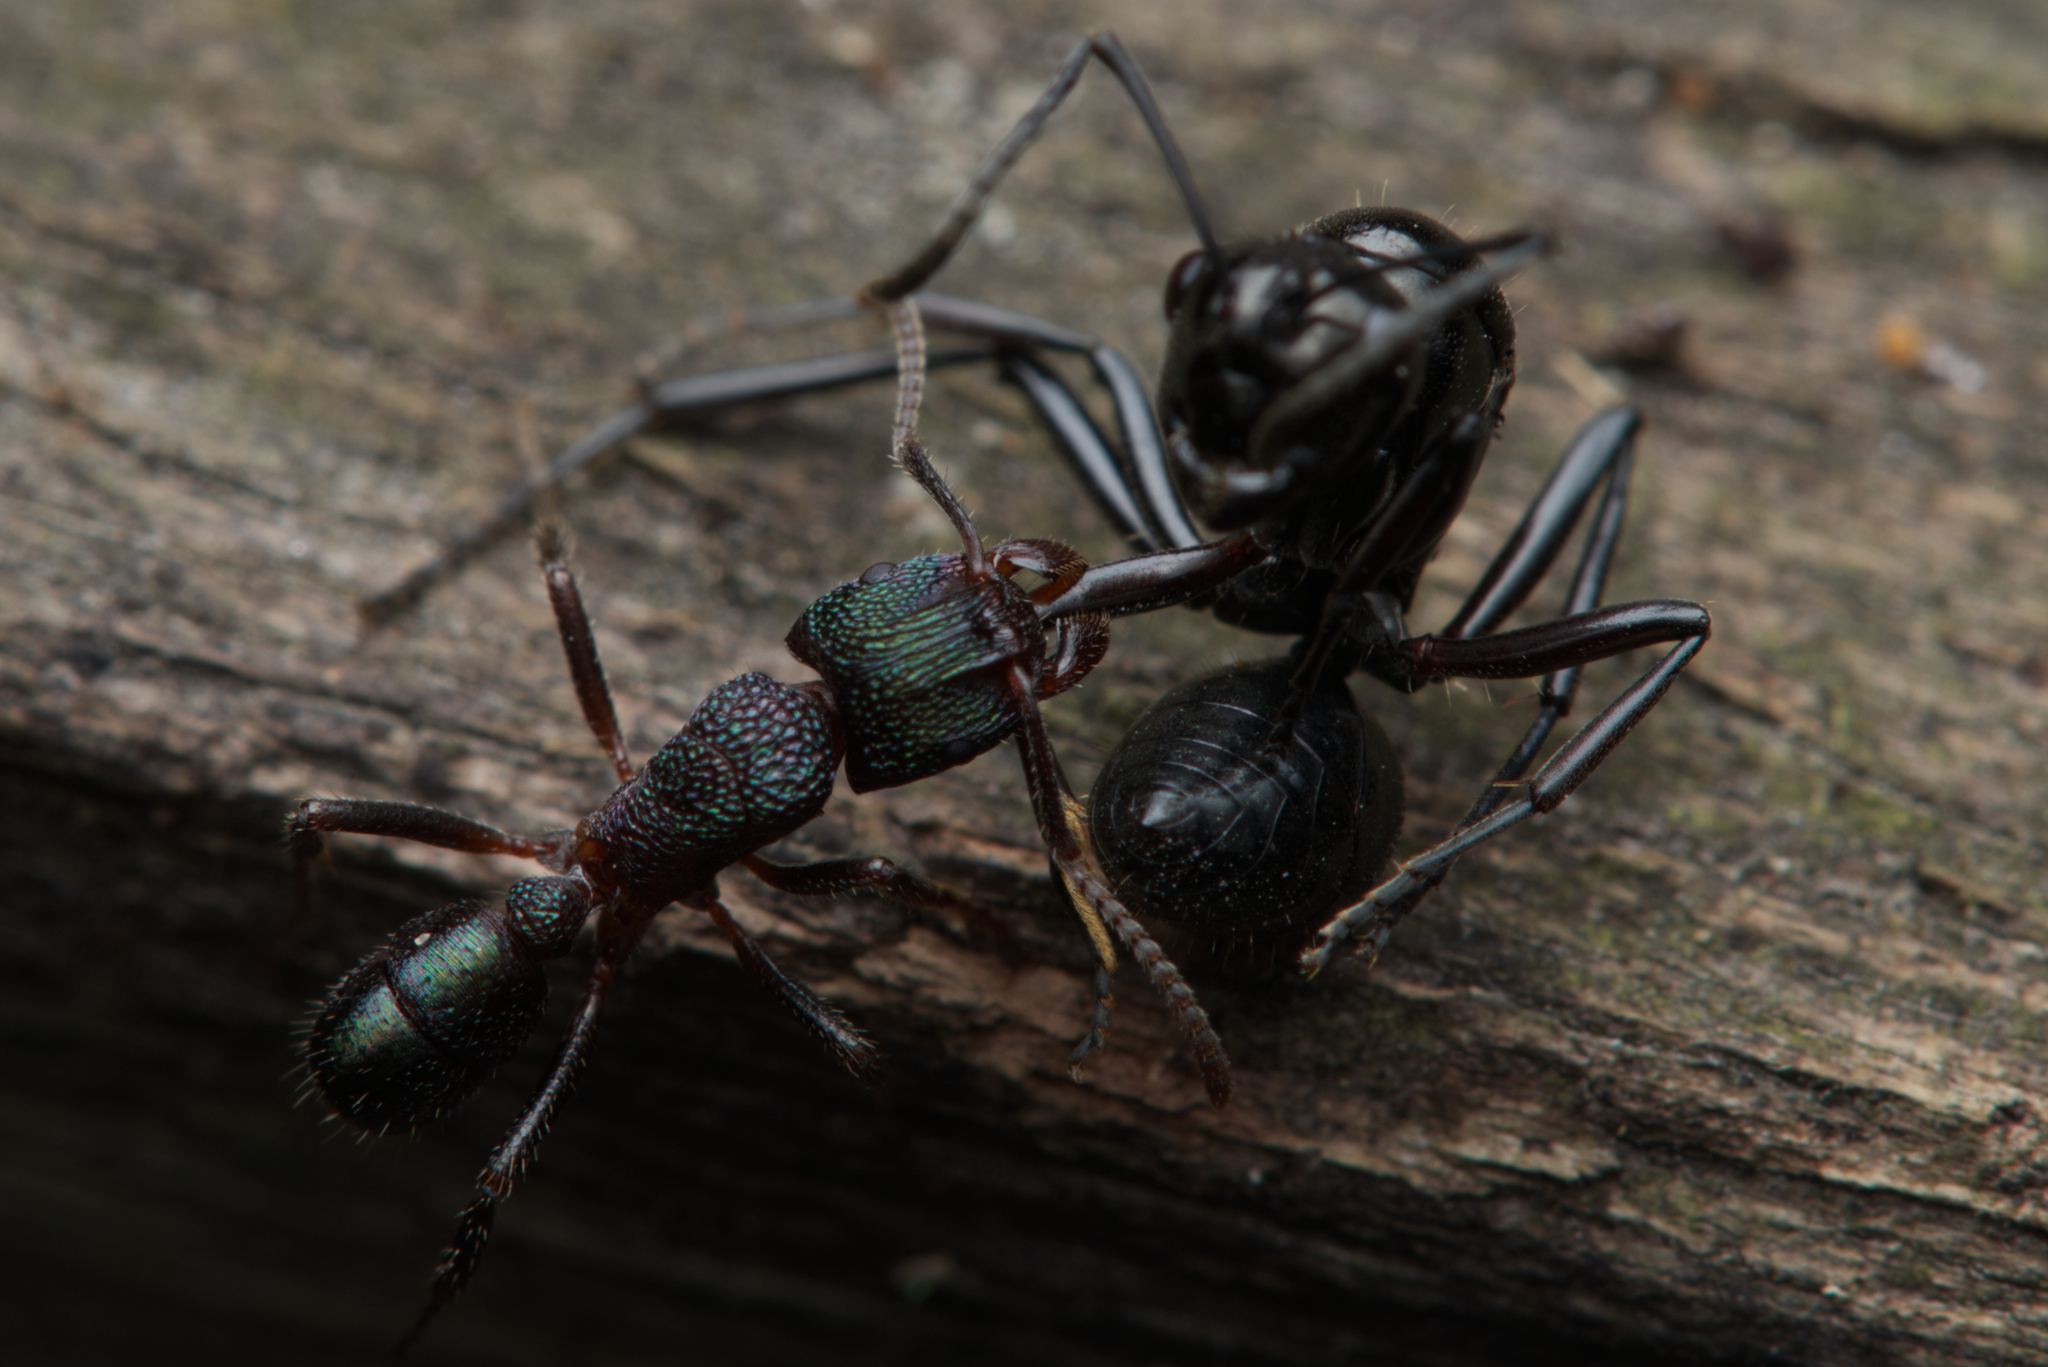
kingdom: Animalia
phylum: Arthropoda
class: Insecta
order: Hymenoptera
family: Formicidae
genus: Rhytidoponera
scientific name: Rhytidoponera metallica
